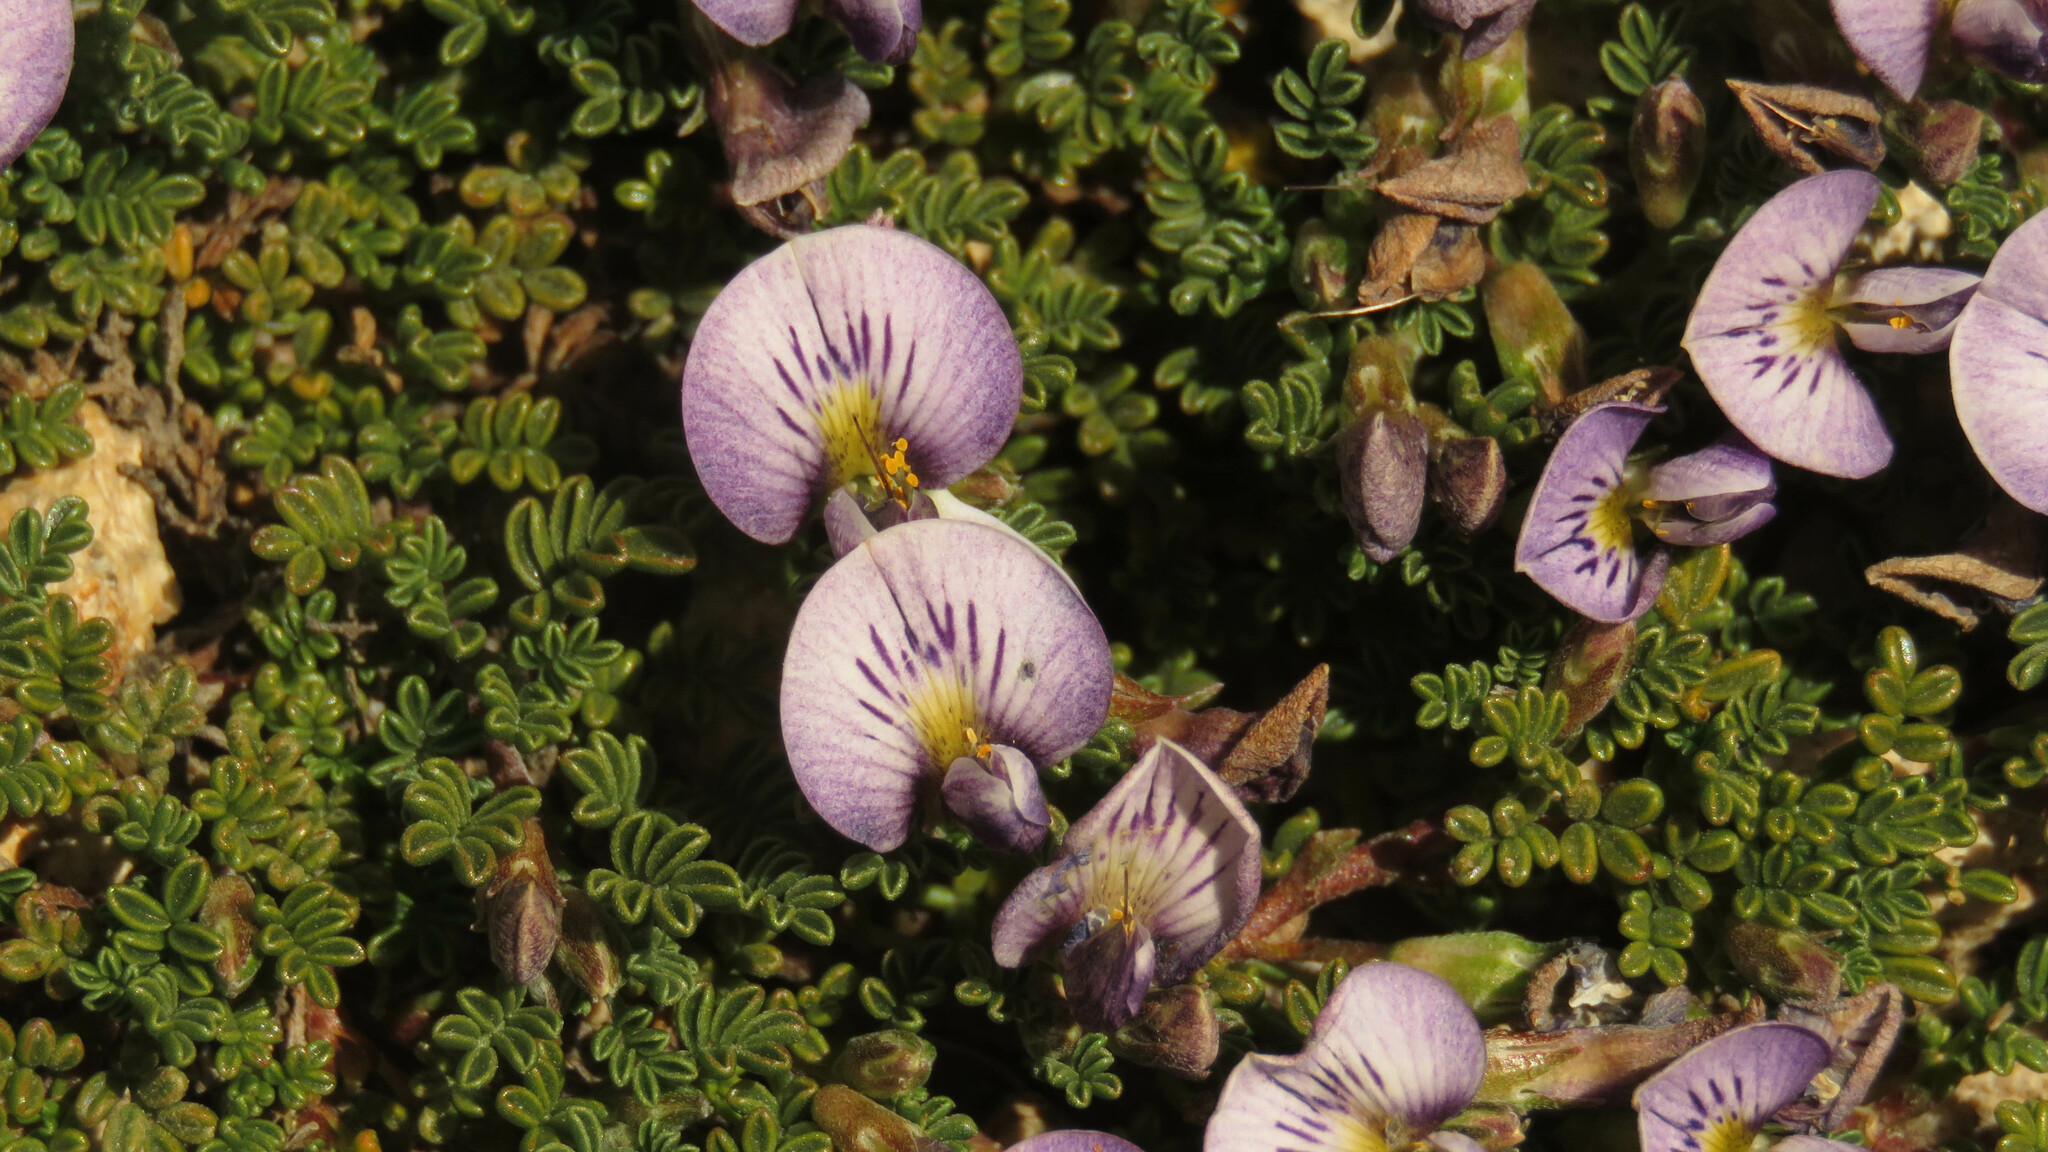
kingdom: Plantae
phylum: Tracheophyta
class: Magnoliopsida
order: Fabales
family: Fabaceae
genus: Adesmia
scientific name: Adesmia parvifolia
